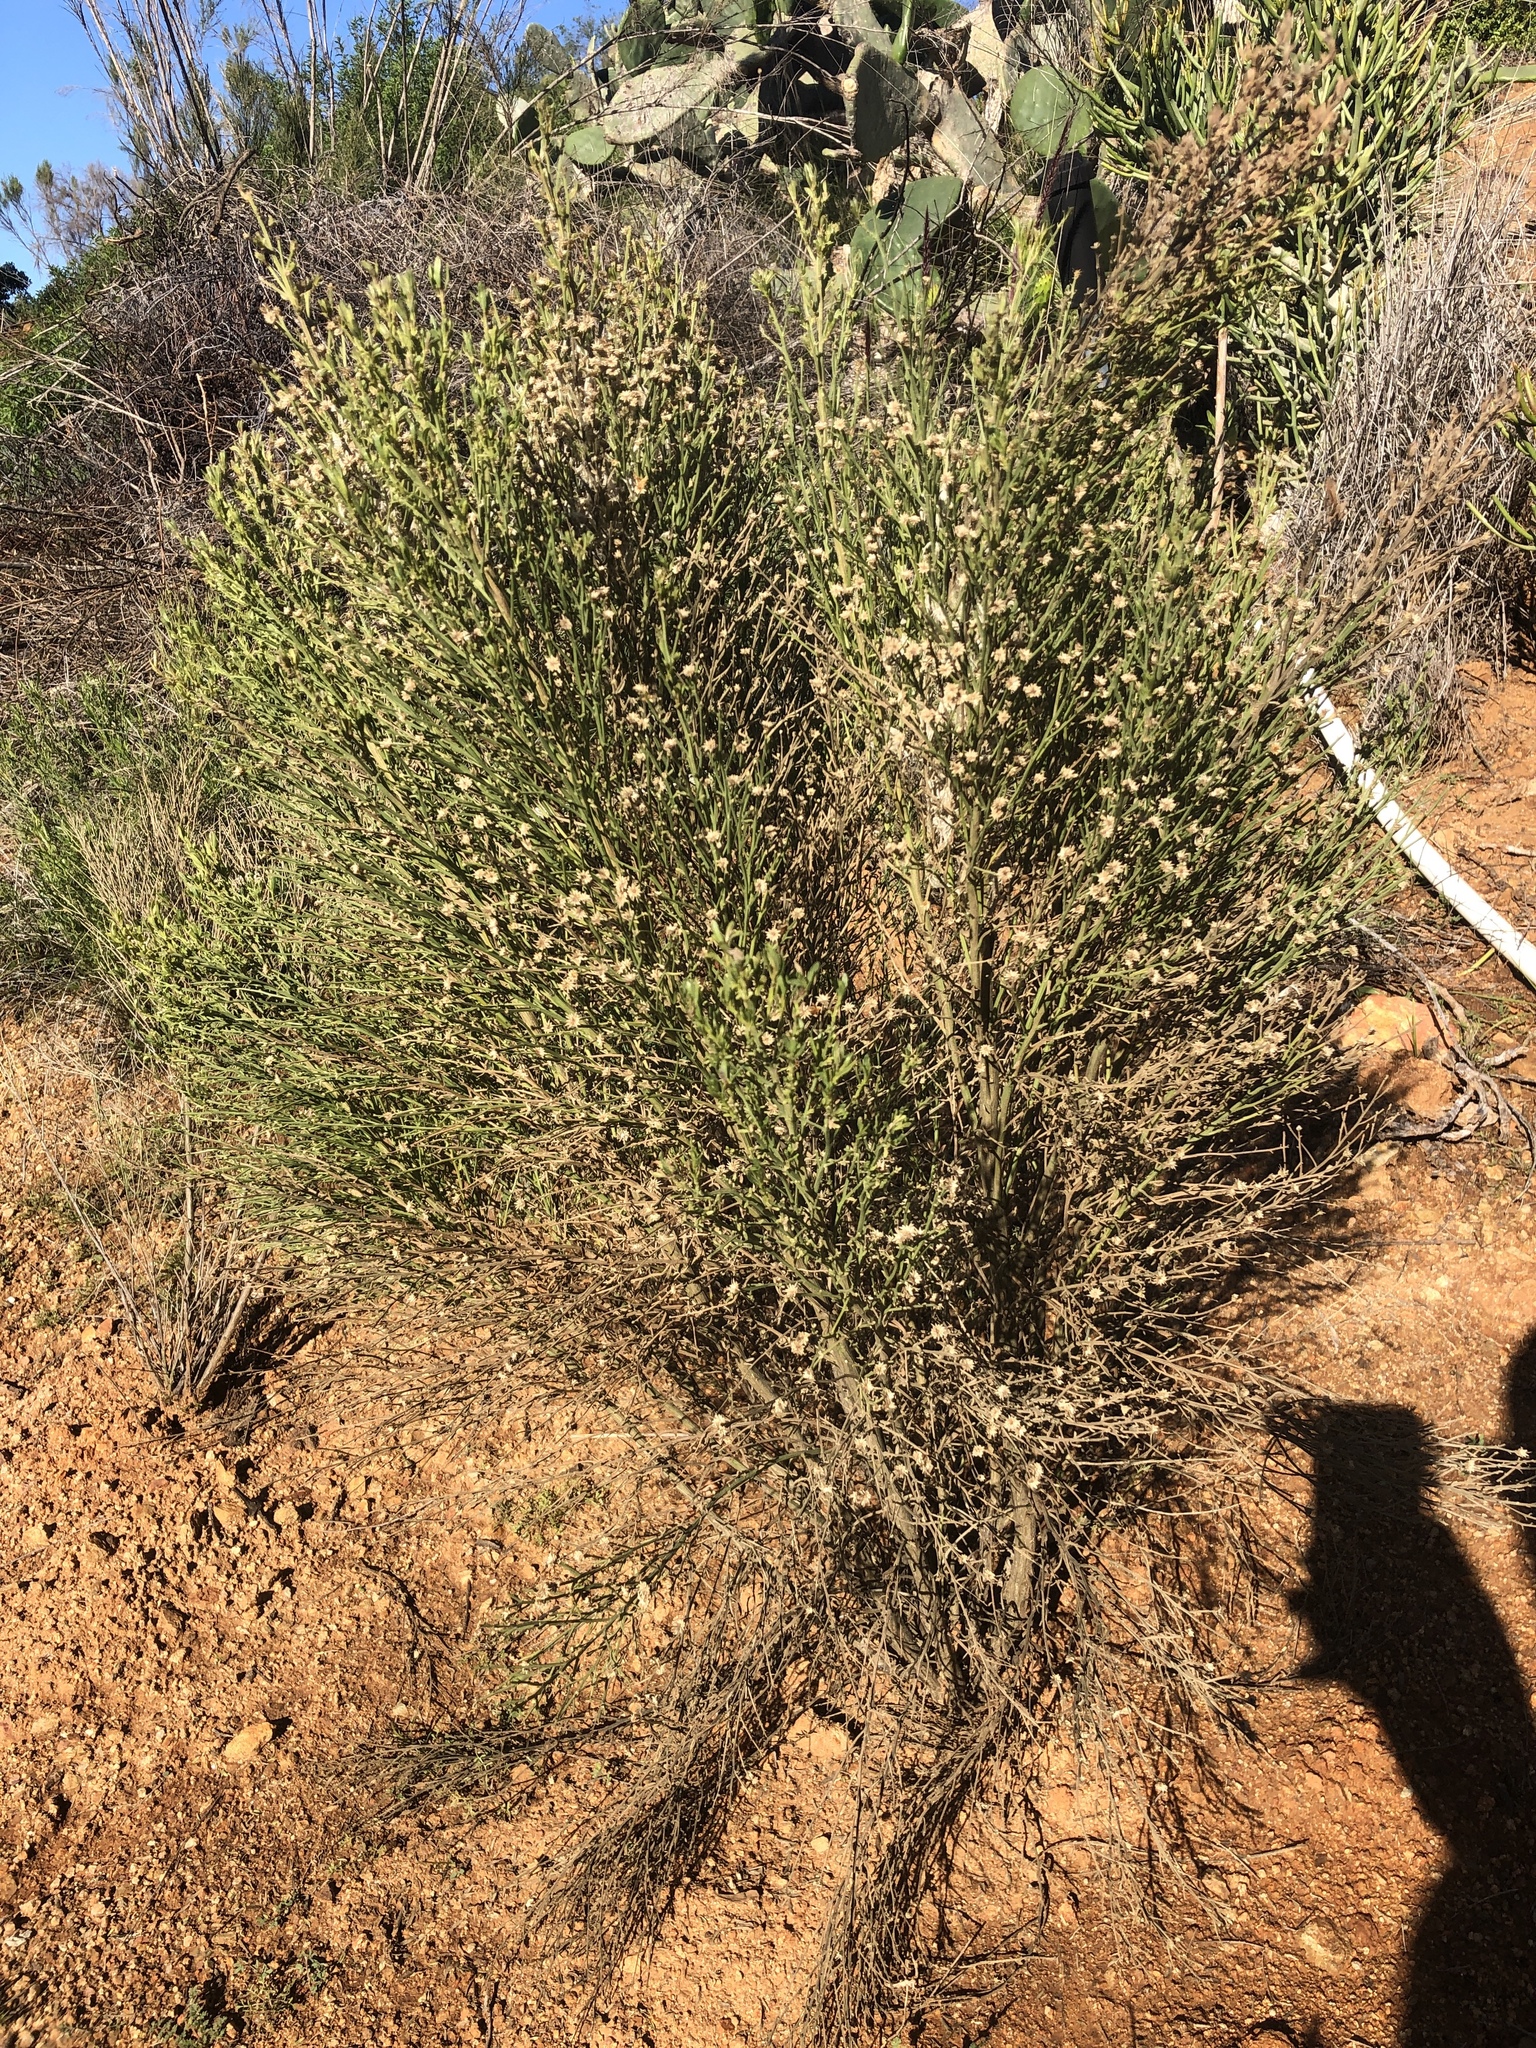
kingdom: Plantae
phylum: Tracheophyta
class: Magnoliopsida
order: Asterales
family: Asteraceae
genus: Baccharis
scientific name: Baccharis sarothroides
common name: Desert-broom
